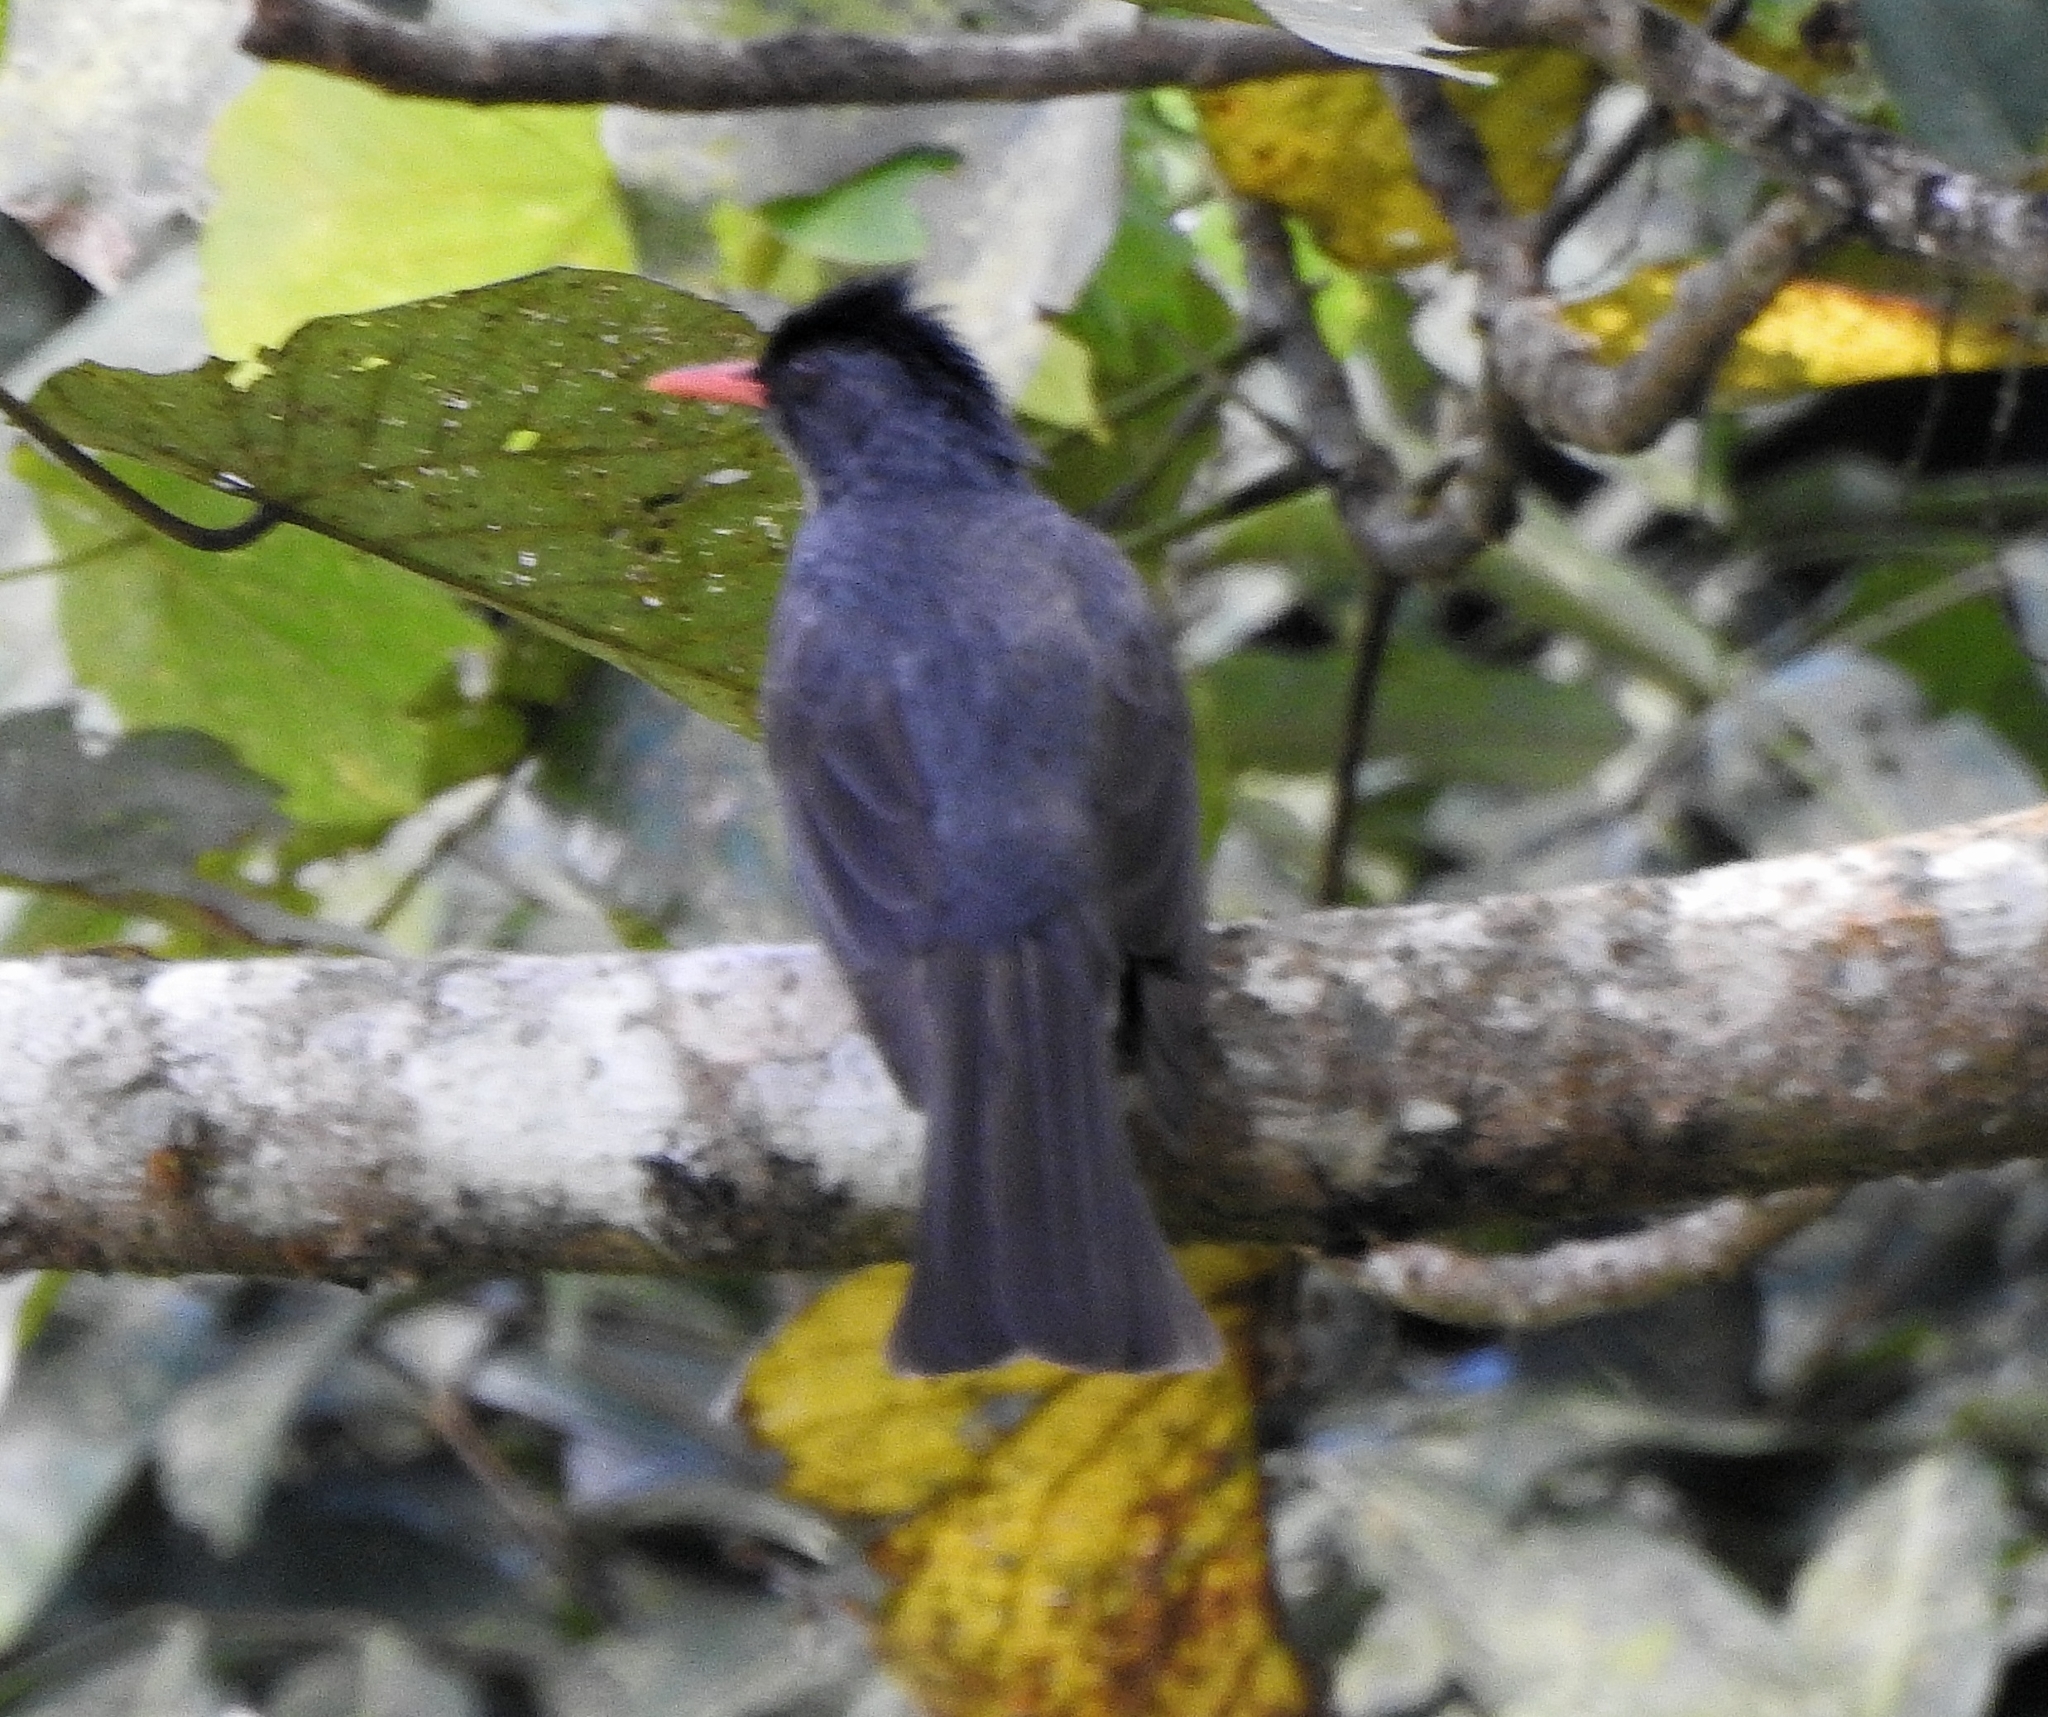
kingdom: Animalia
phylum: Chordata
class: Aves
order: Passeriformes
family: Pycnonotidae
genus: Hypsipetes
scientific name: Hypsipetes ganeesa
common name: Square-tailed bulbul
